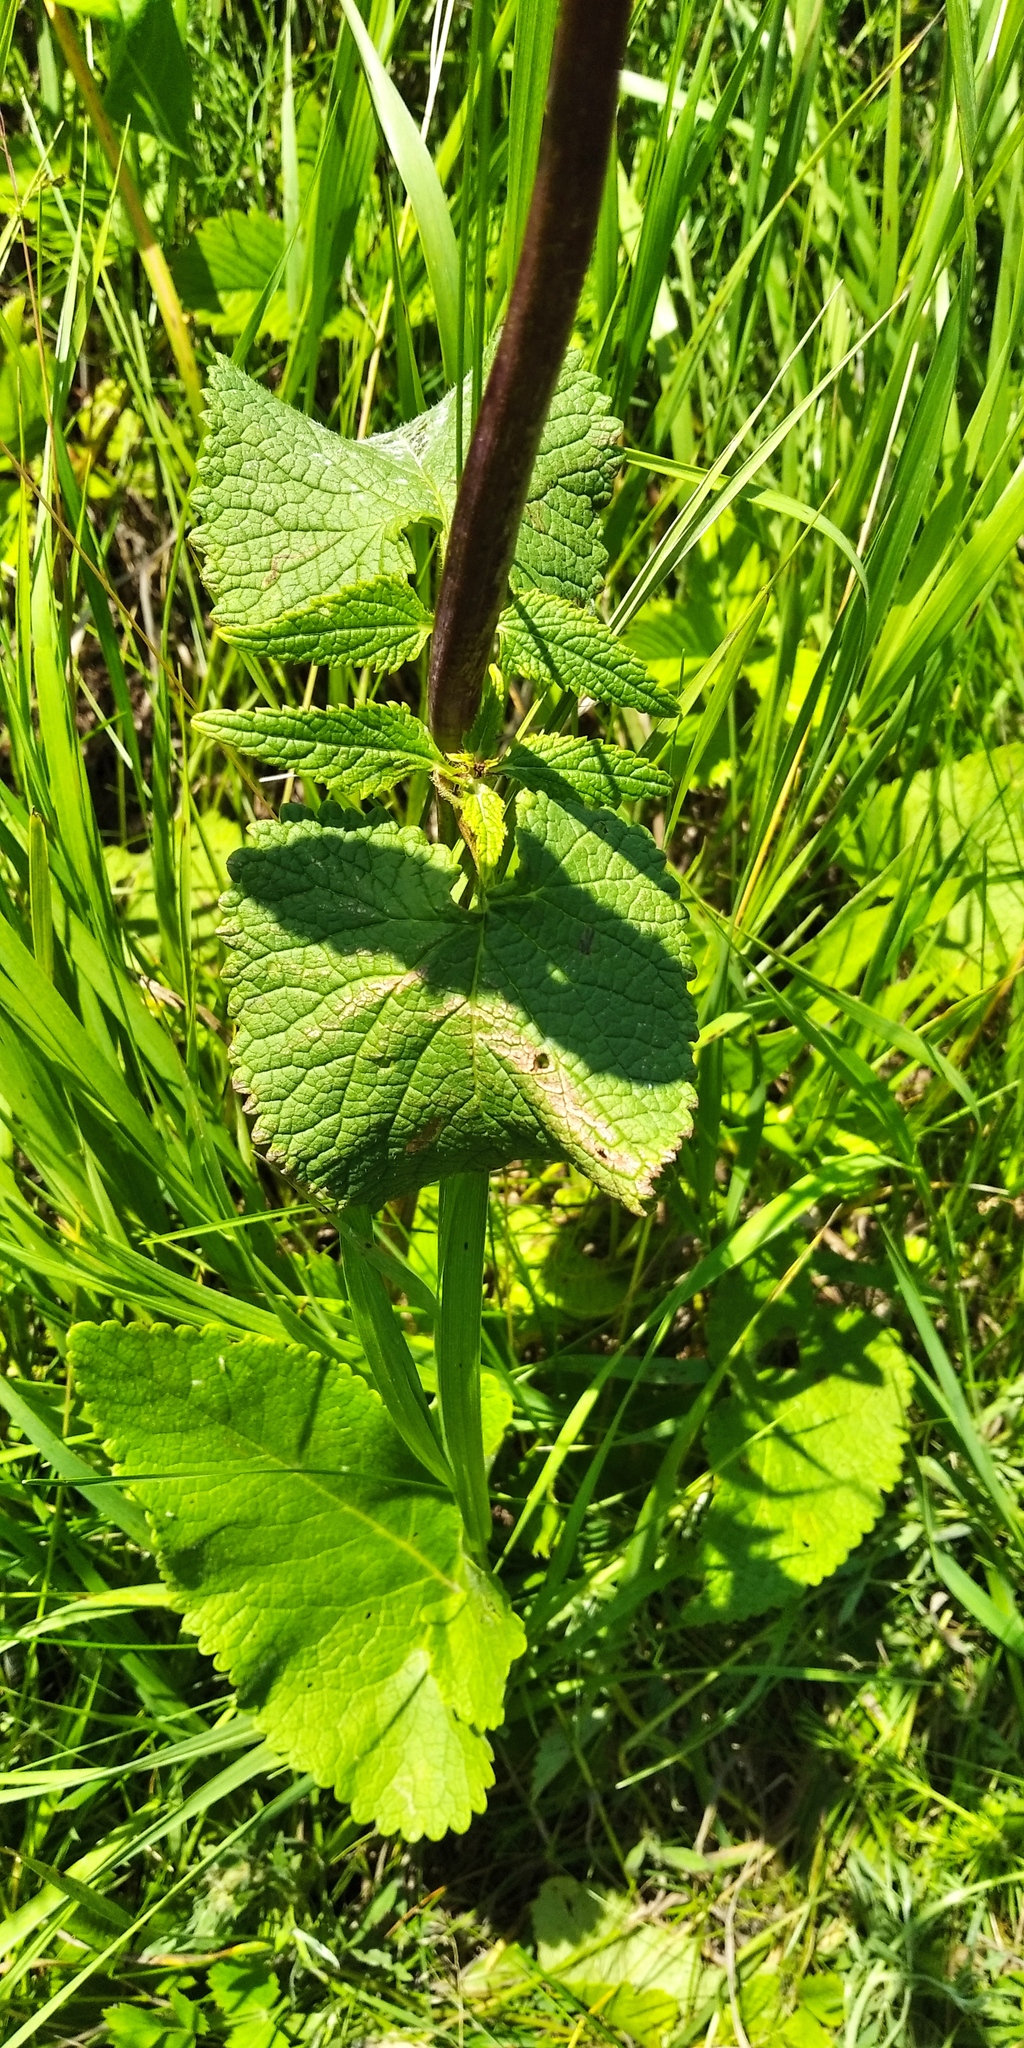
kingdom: Plantae
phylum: Tracheophyta
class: Magnoliopsida
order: Lamiales
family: Lamiaceae
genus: Phlomoides
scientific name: Phlomoides tuberosa
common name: Tuberous jerusalem sage
